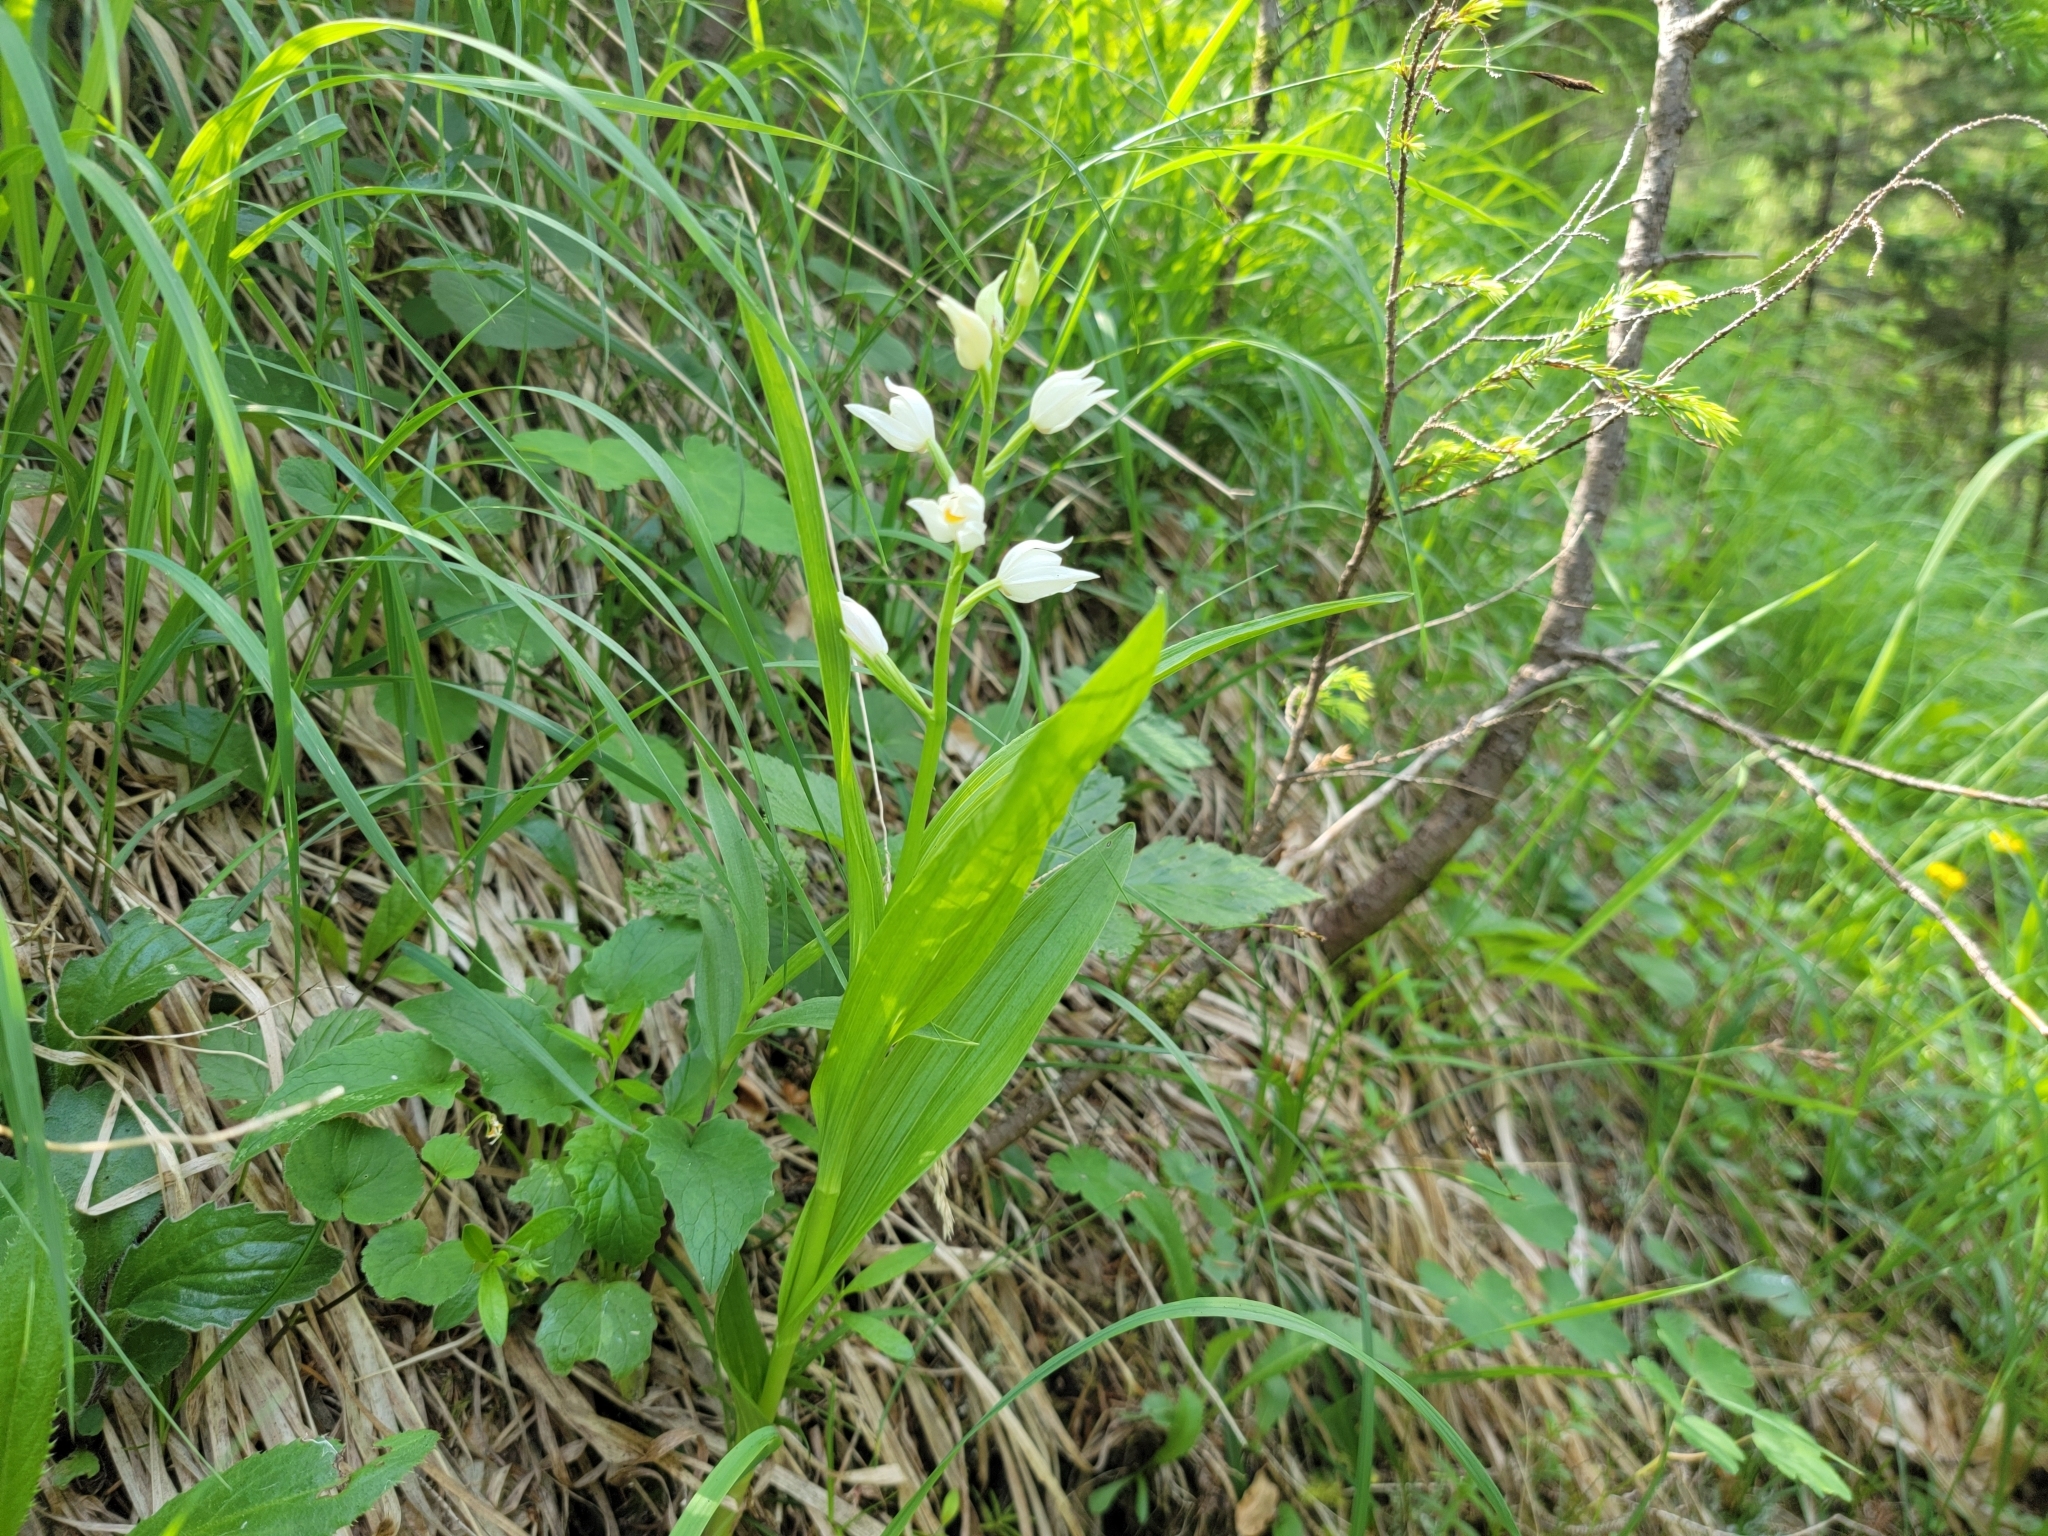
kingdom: Plantae
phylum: Tracheophyta
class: Liliopsida
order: Asparagales
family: Orchidaceae
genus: Cephalanthera
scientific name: Cephalanthera longifolia
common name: Narrow-leaved helleborine
